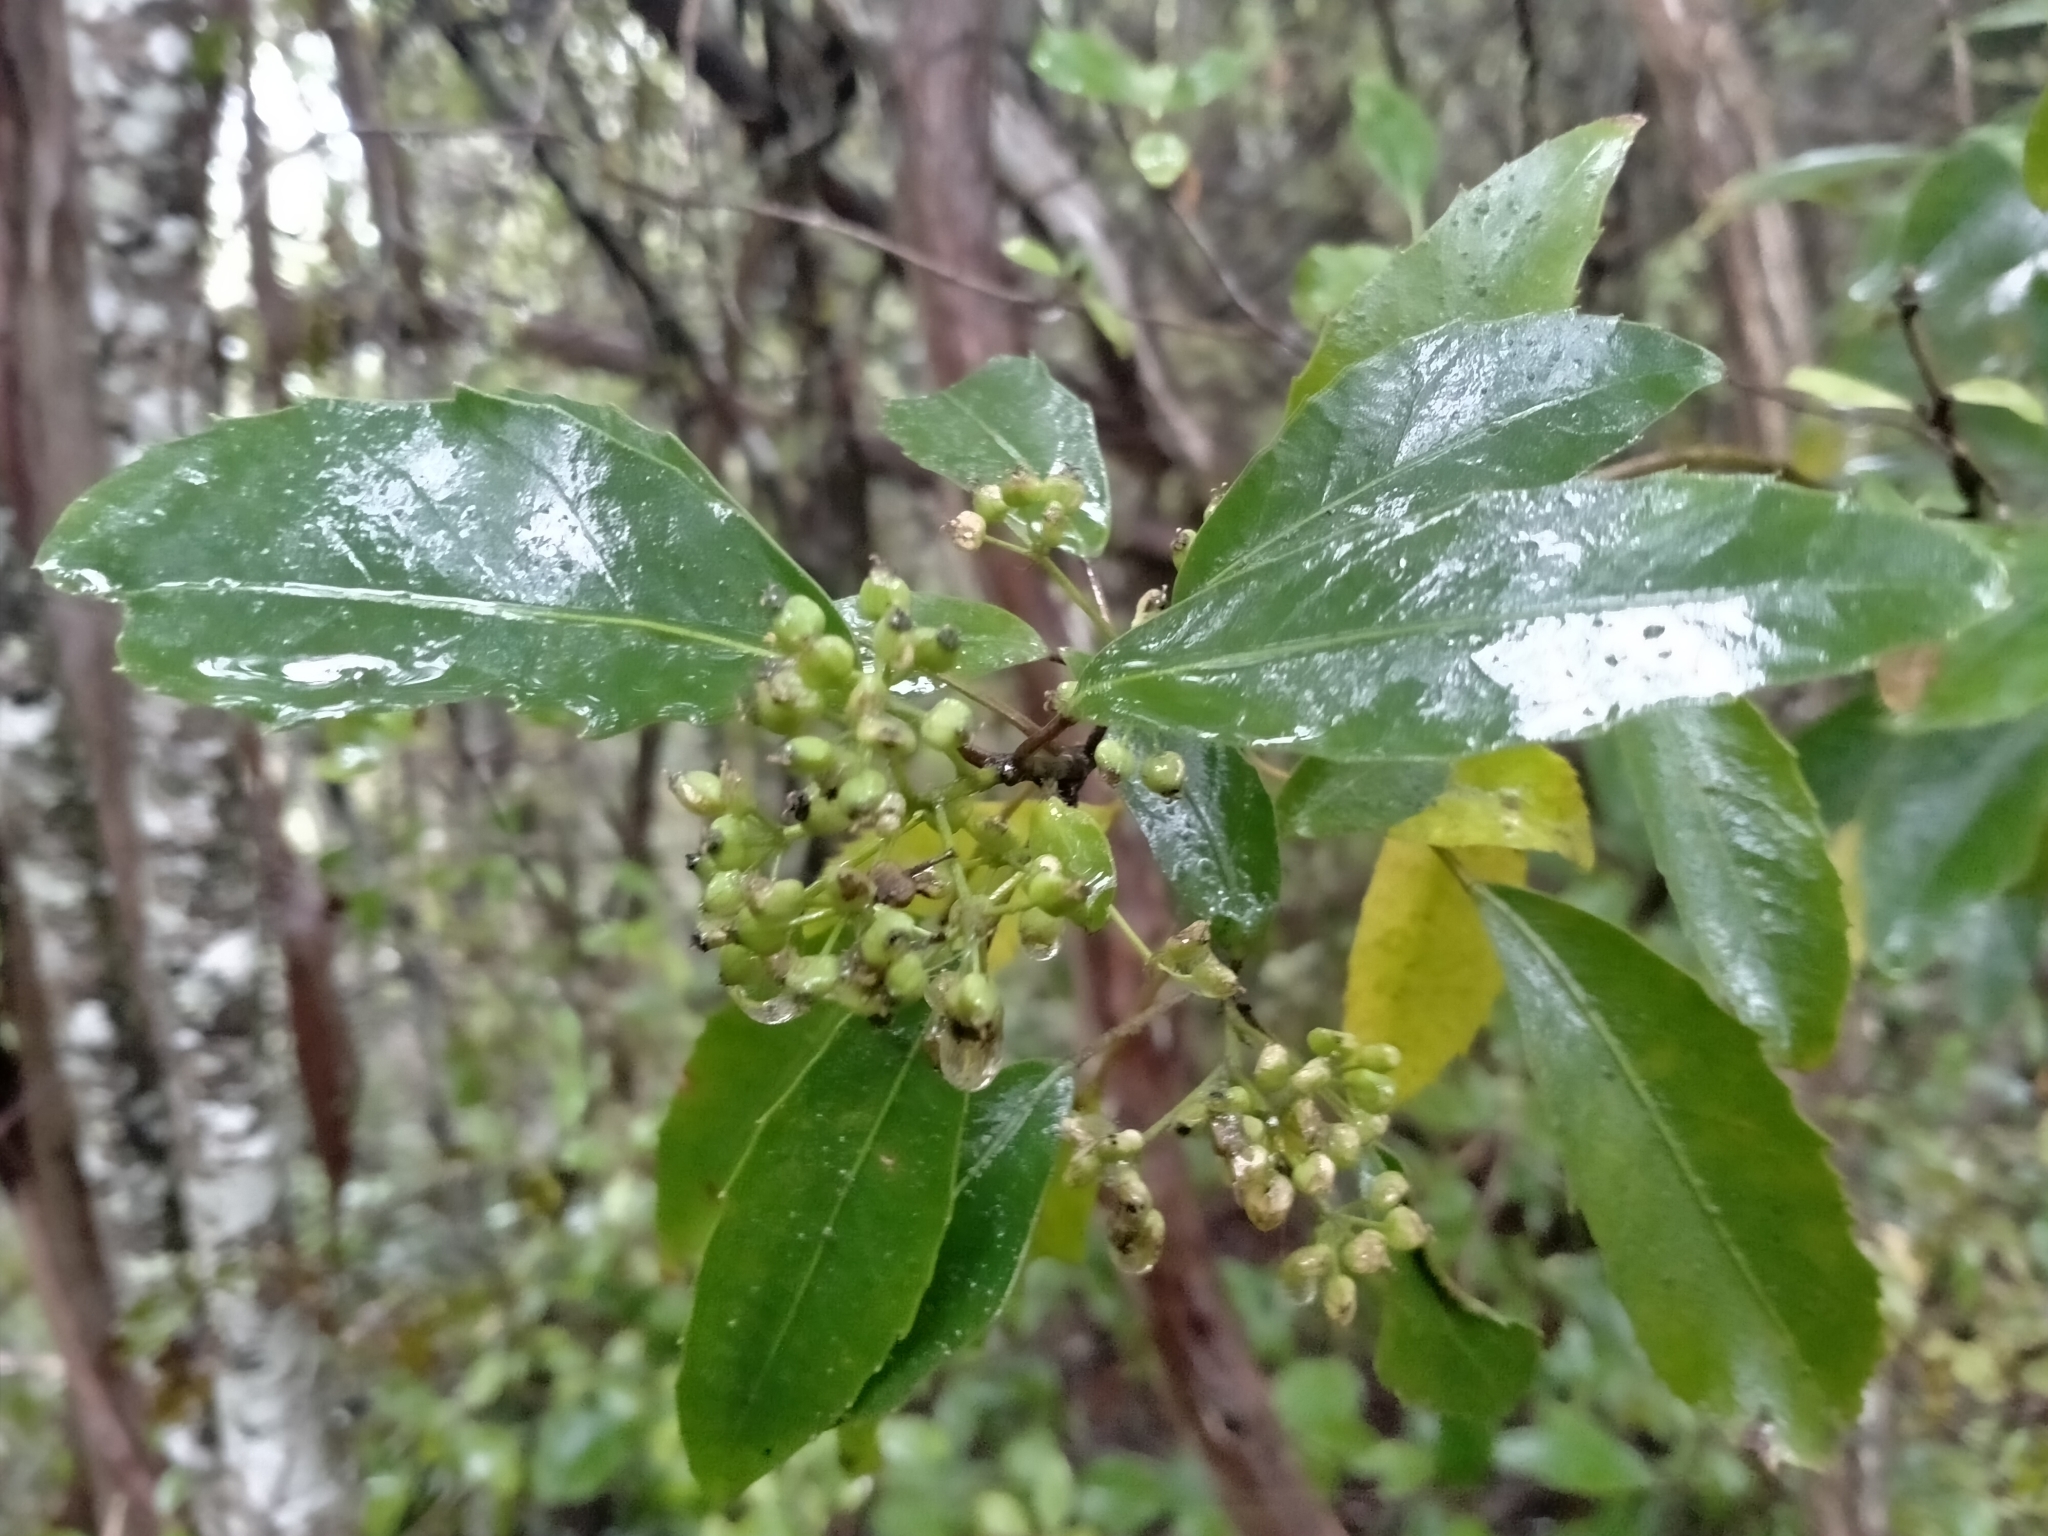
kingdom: Plantae
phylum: Tracheophyta
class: Magnoliopsida
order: Apiales
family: Araliaceae
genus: Raukaua
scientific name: Raukaua simplex
